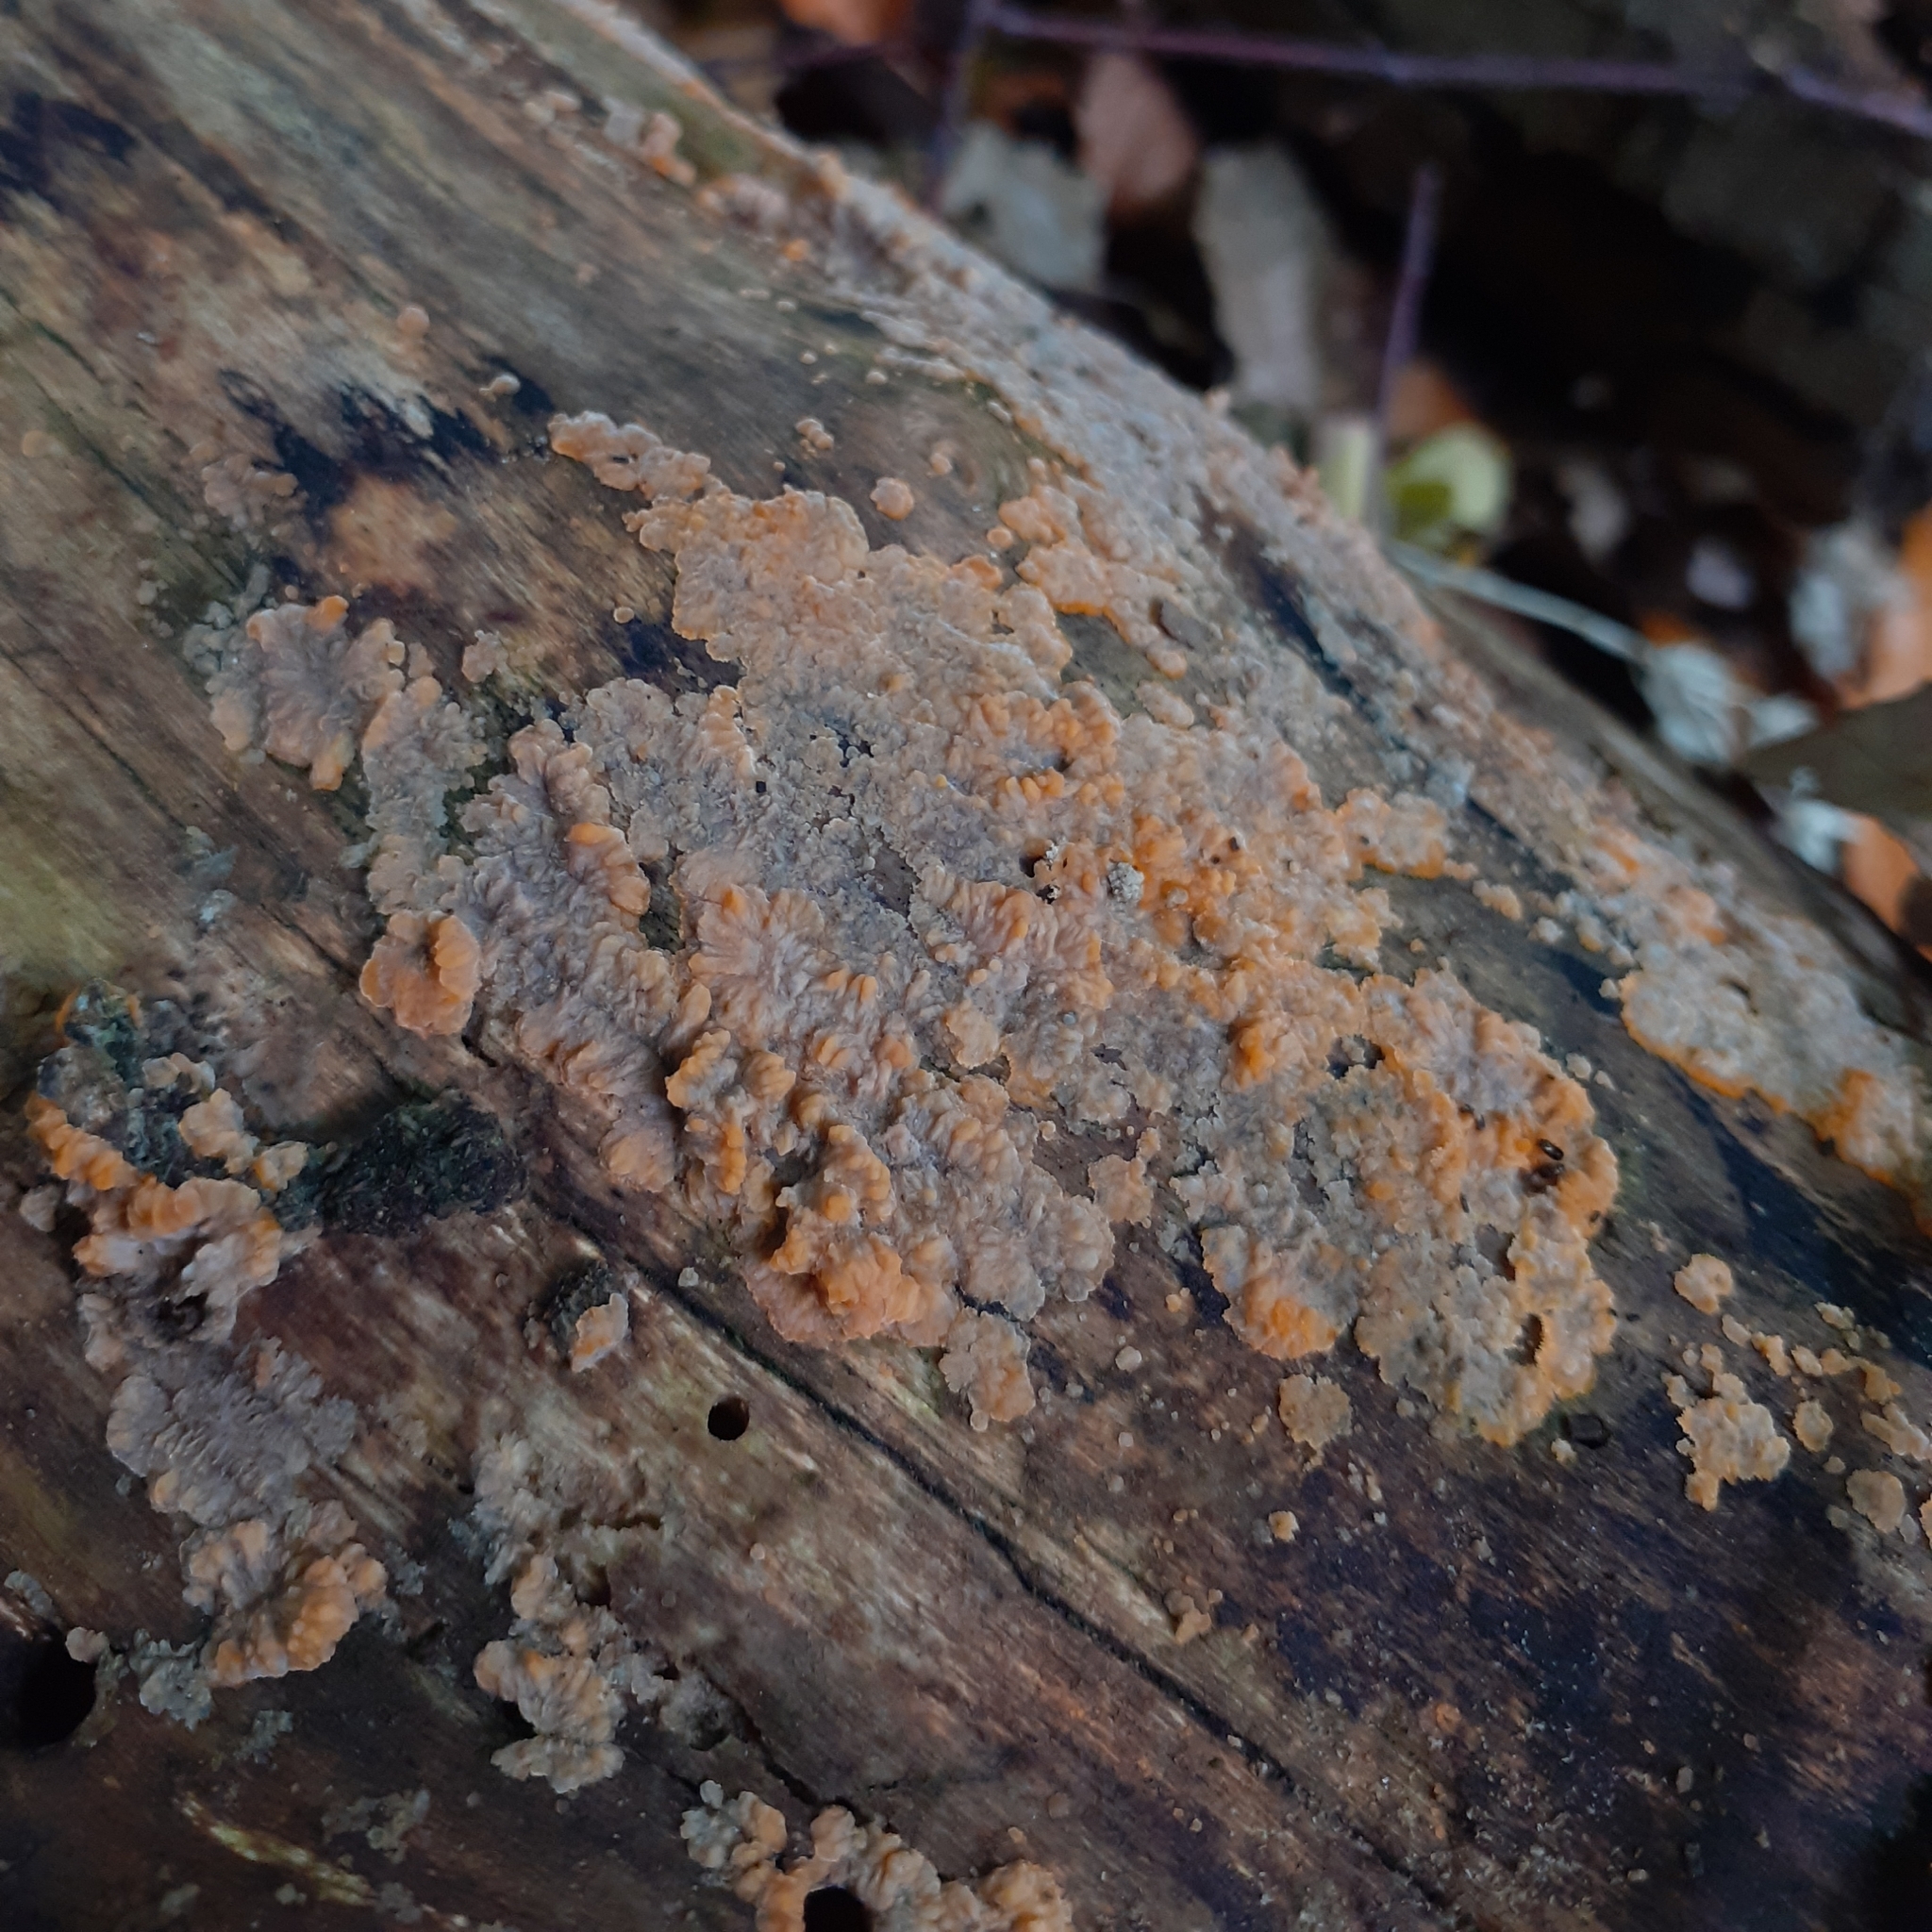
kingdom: Fungi
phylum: Basidiomycota
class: Agaricomycetes
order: Polyporales
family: Meruliaceae
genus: Phlebia
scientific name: Phlebia radiata
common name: Wrinkled crust
